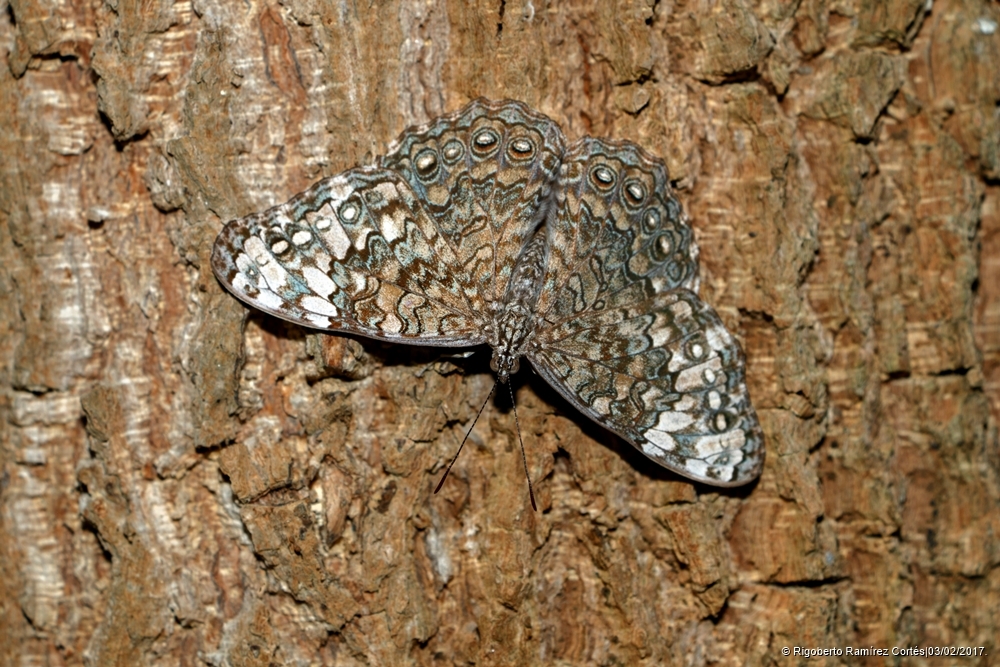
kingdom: Animalia
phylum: Arthropoda
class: Insecta
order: Lepidoptera
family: Nymphalidae
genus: Hamadryas
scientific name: Hamadryas glauconome
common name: Glaucous cracker
